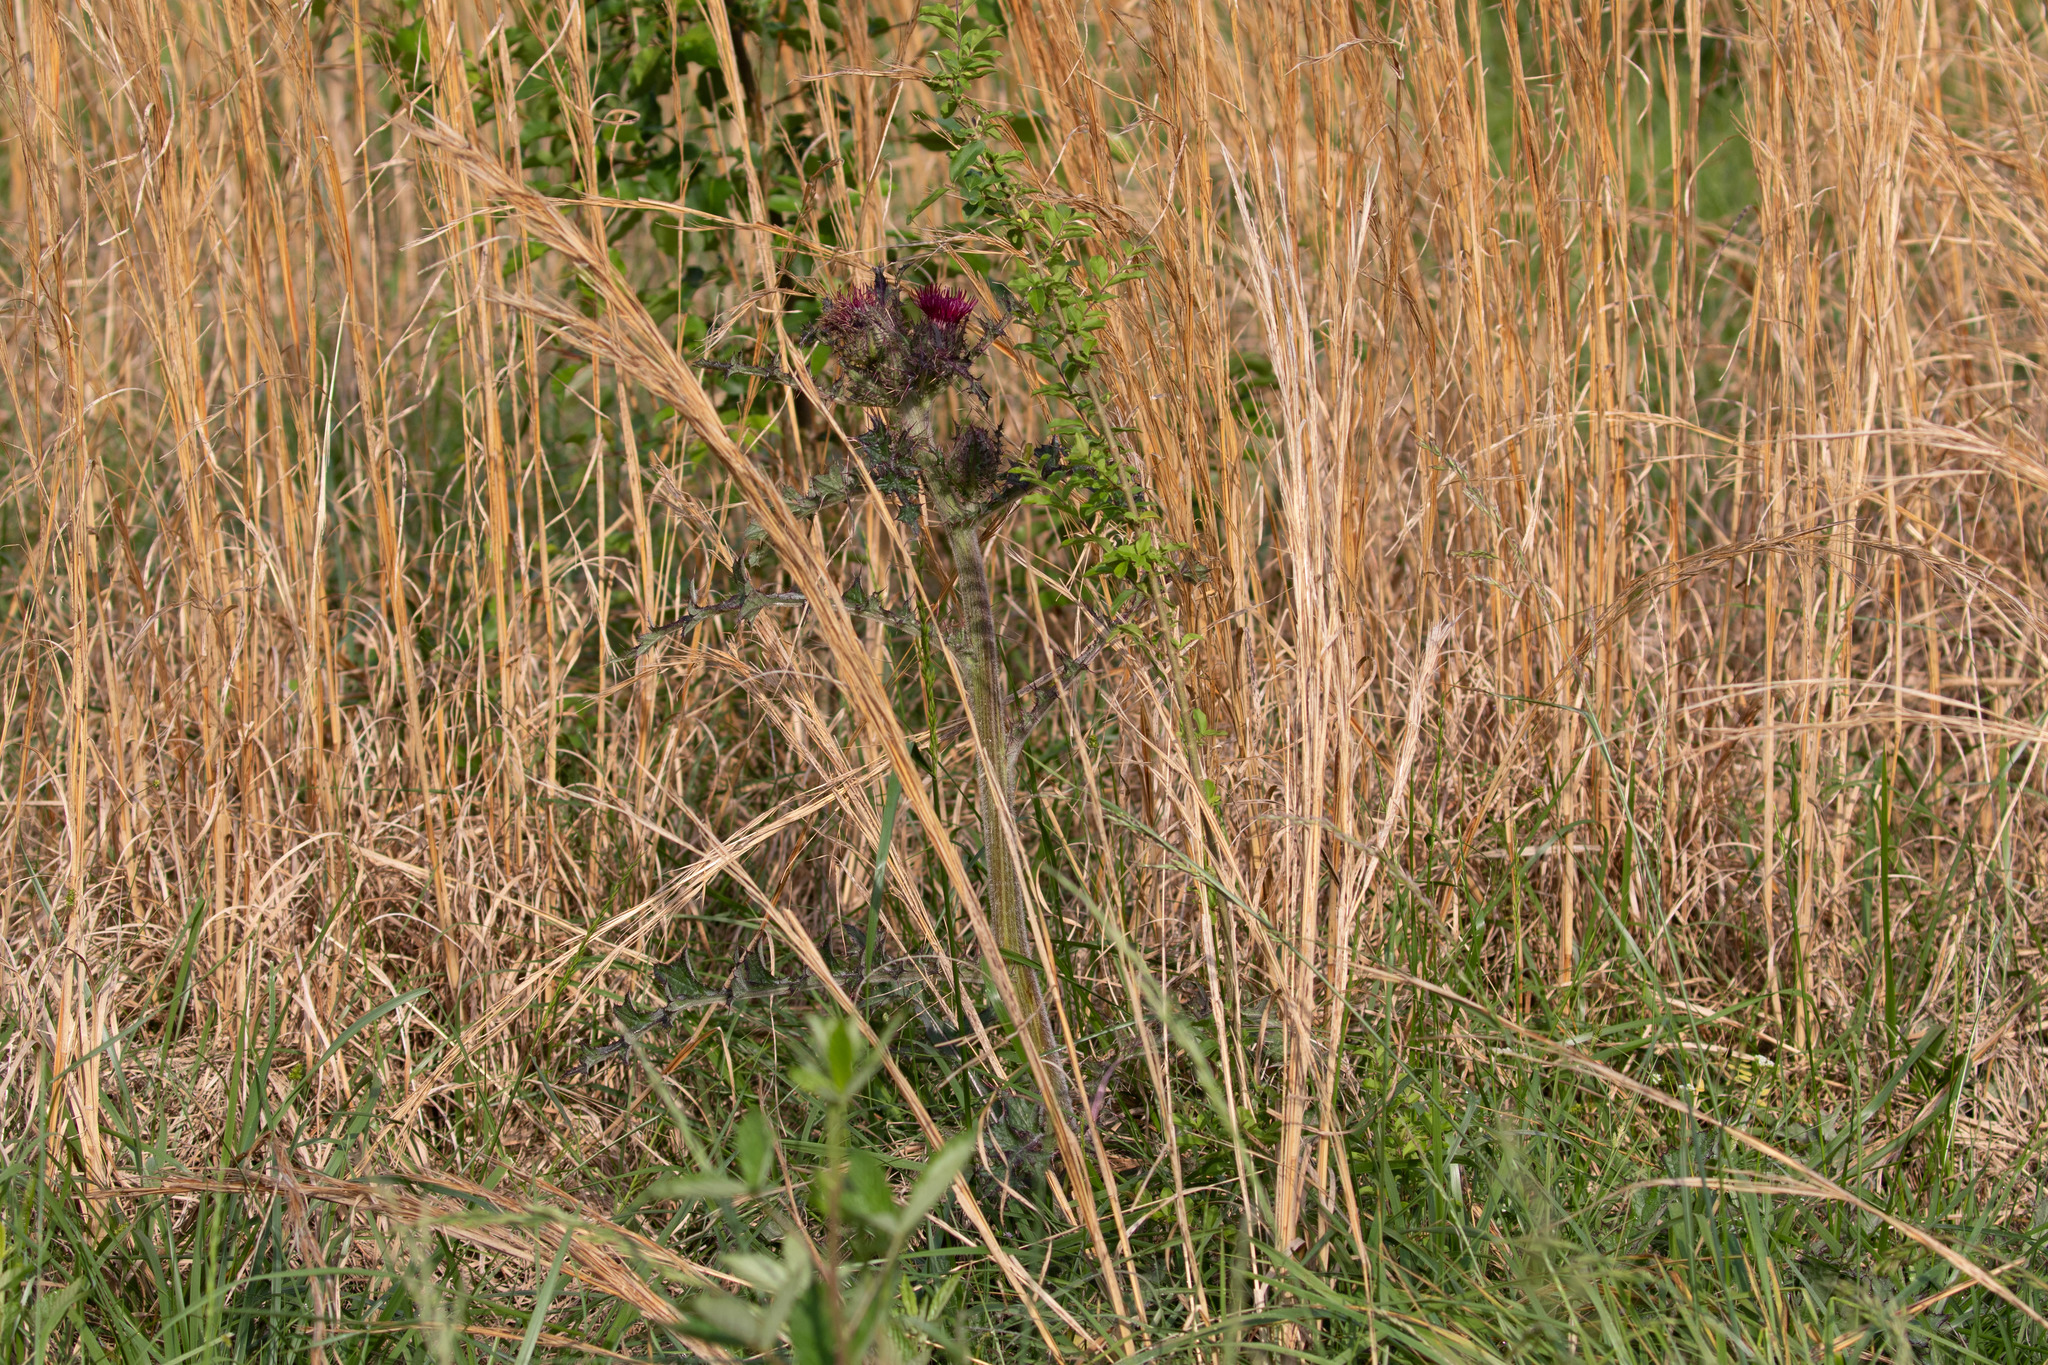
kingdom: Plantae
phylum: Tracheophyta
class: Magnoliopsida
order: Asterales
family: Asteraceae
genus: Cirsium
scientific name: Cirsium horridulum
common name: Bristly thistle
